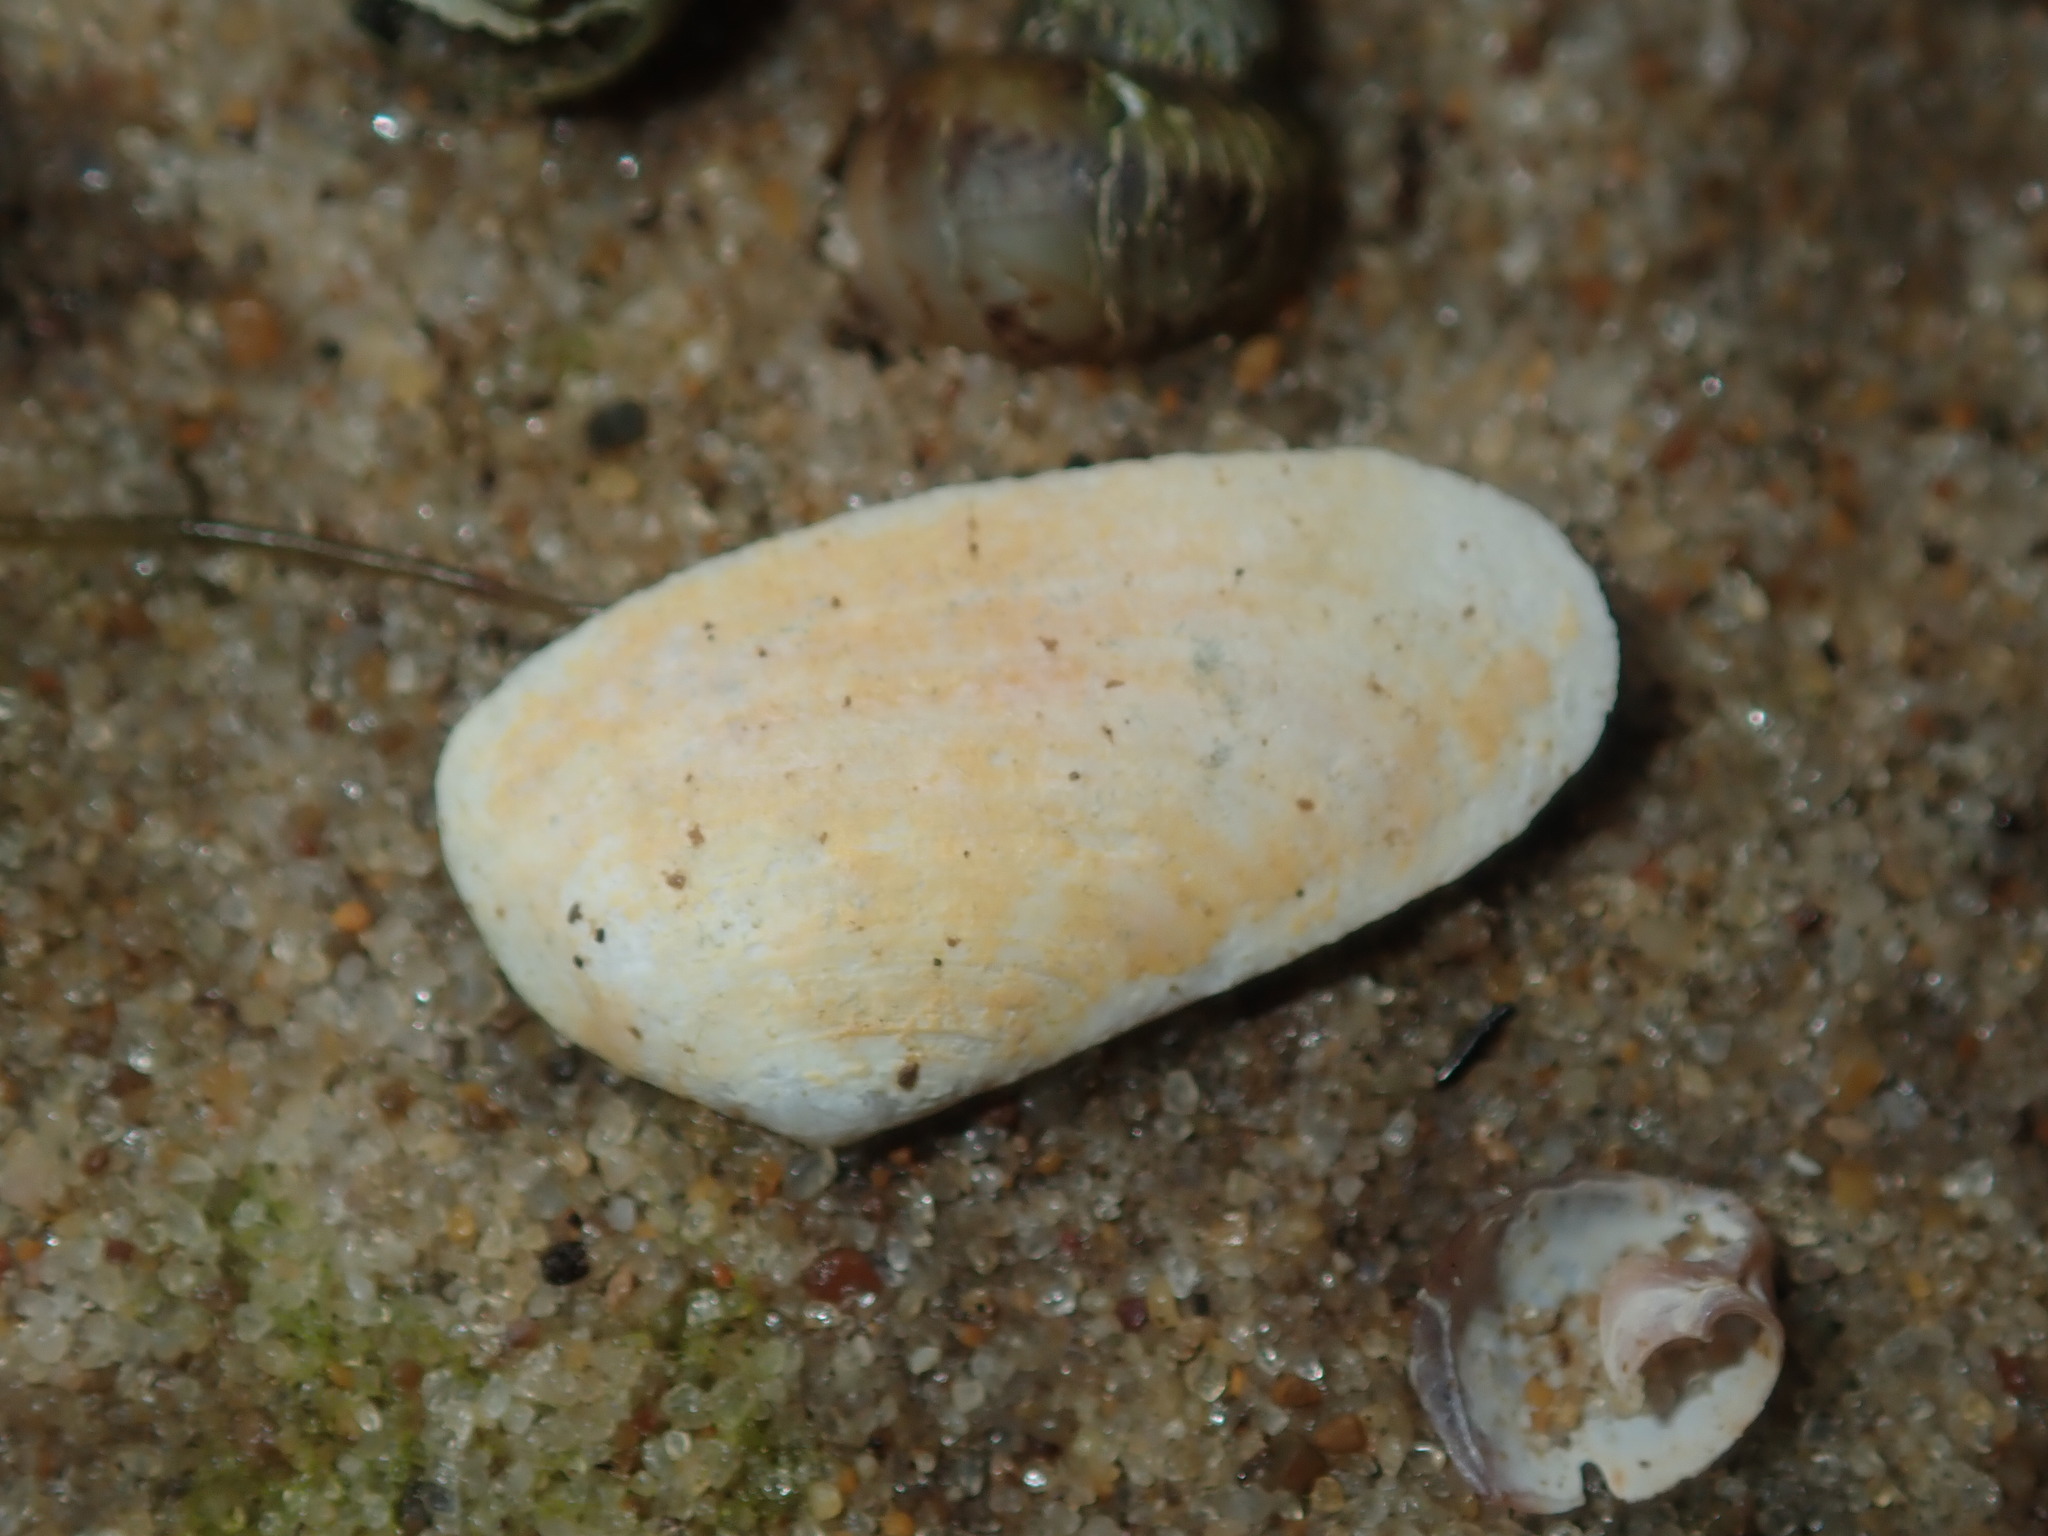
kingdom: Animalia
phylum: Mollusca
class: Bivalvia
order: Venerida
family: Mesodesmatidae
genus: Paphies
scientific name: Paphies angusta
